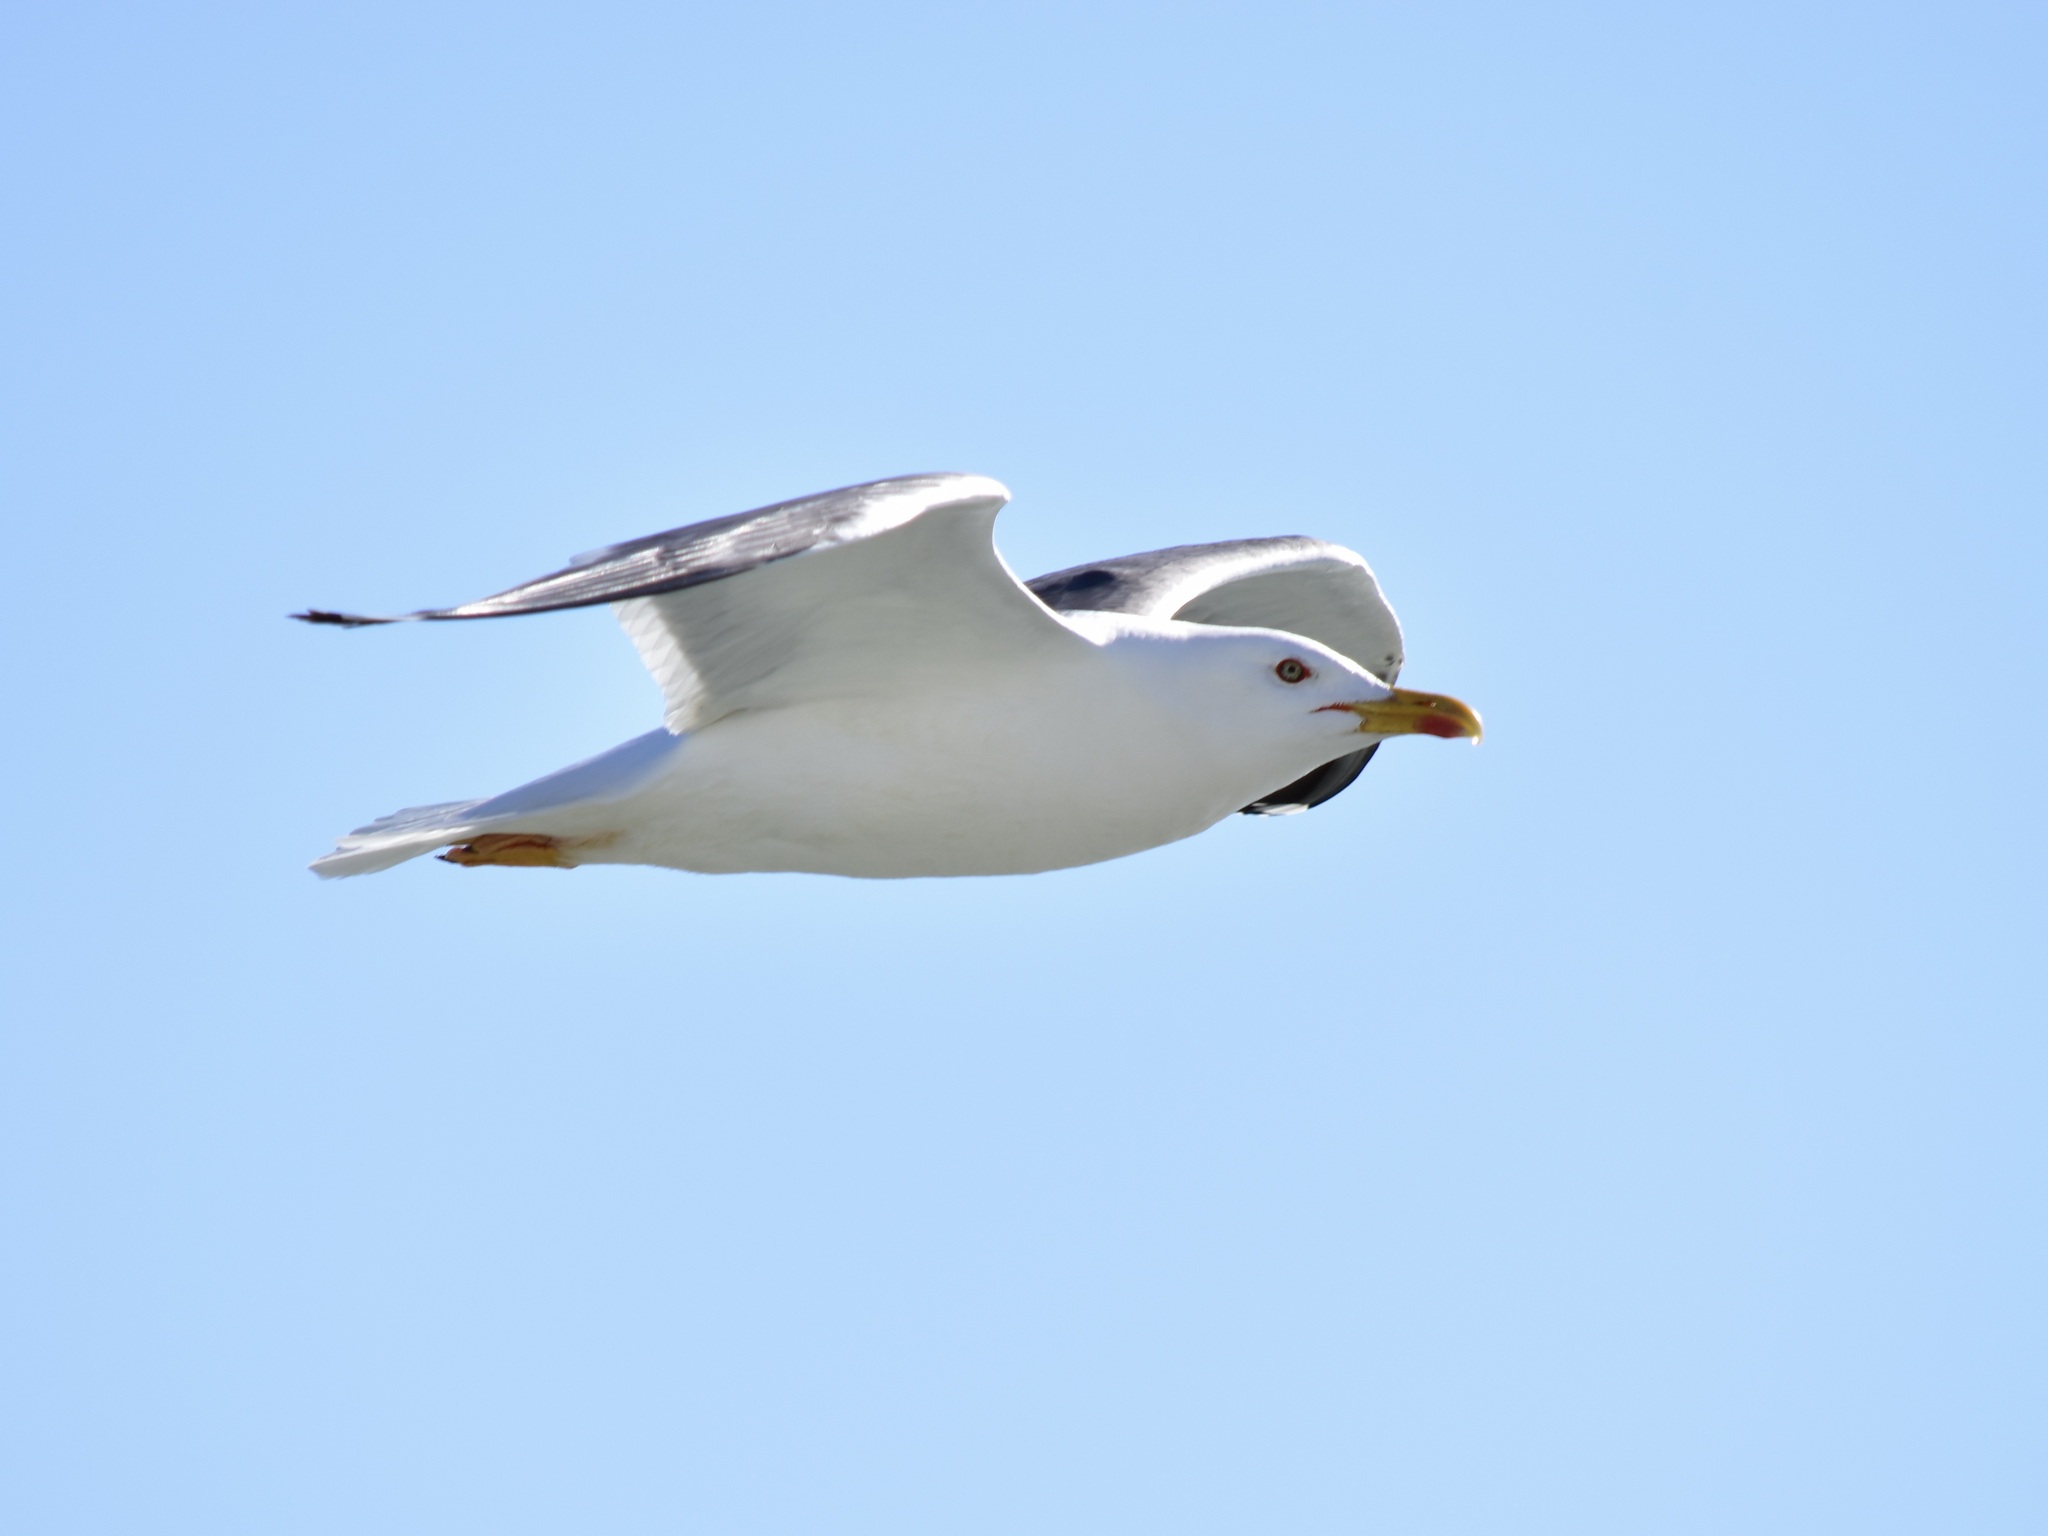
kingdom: Animalia
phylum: Chordata
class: Aves
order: Charadriiformes
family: Laridae
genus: Larus
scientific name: Larus fuscus
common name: Lesser black-backed gull
